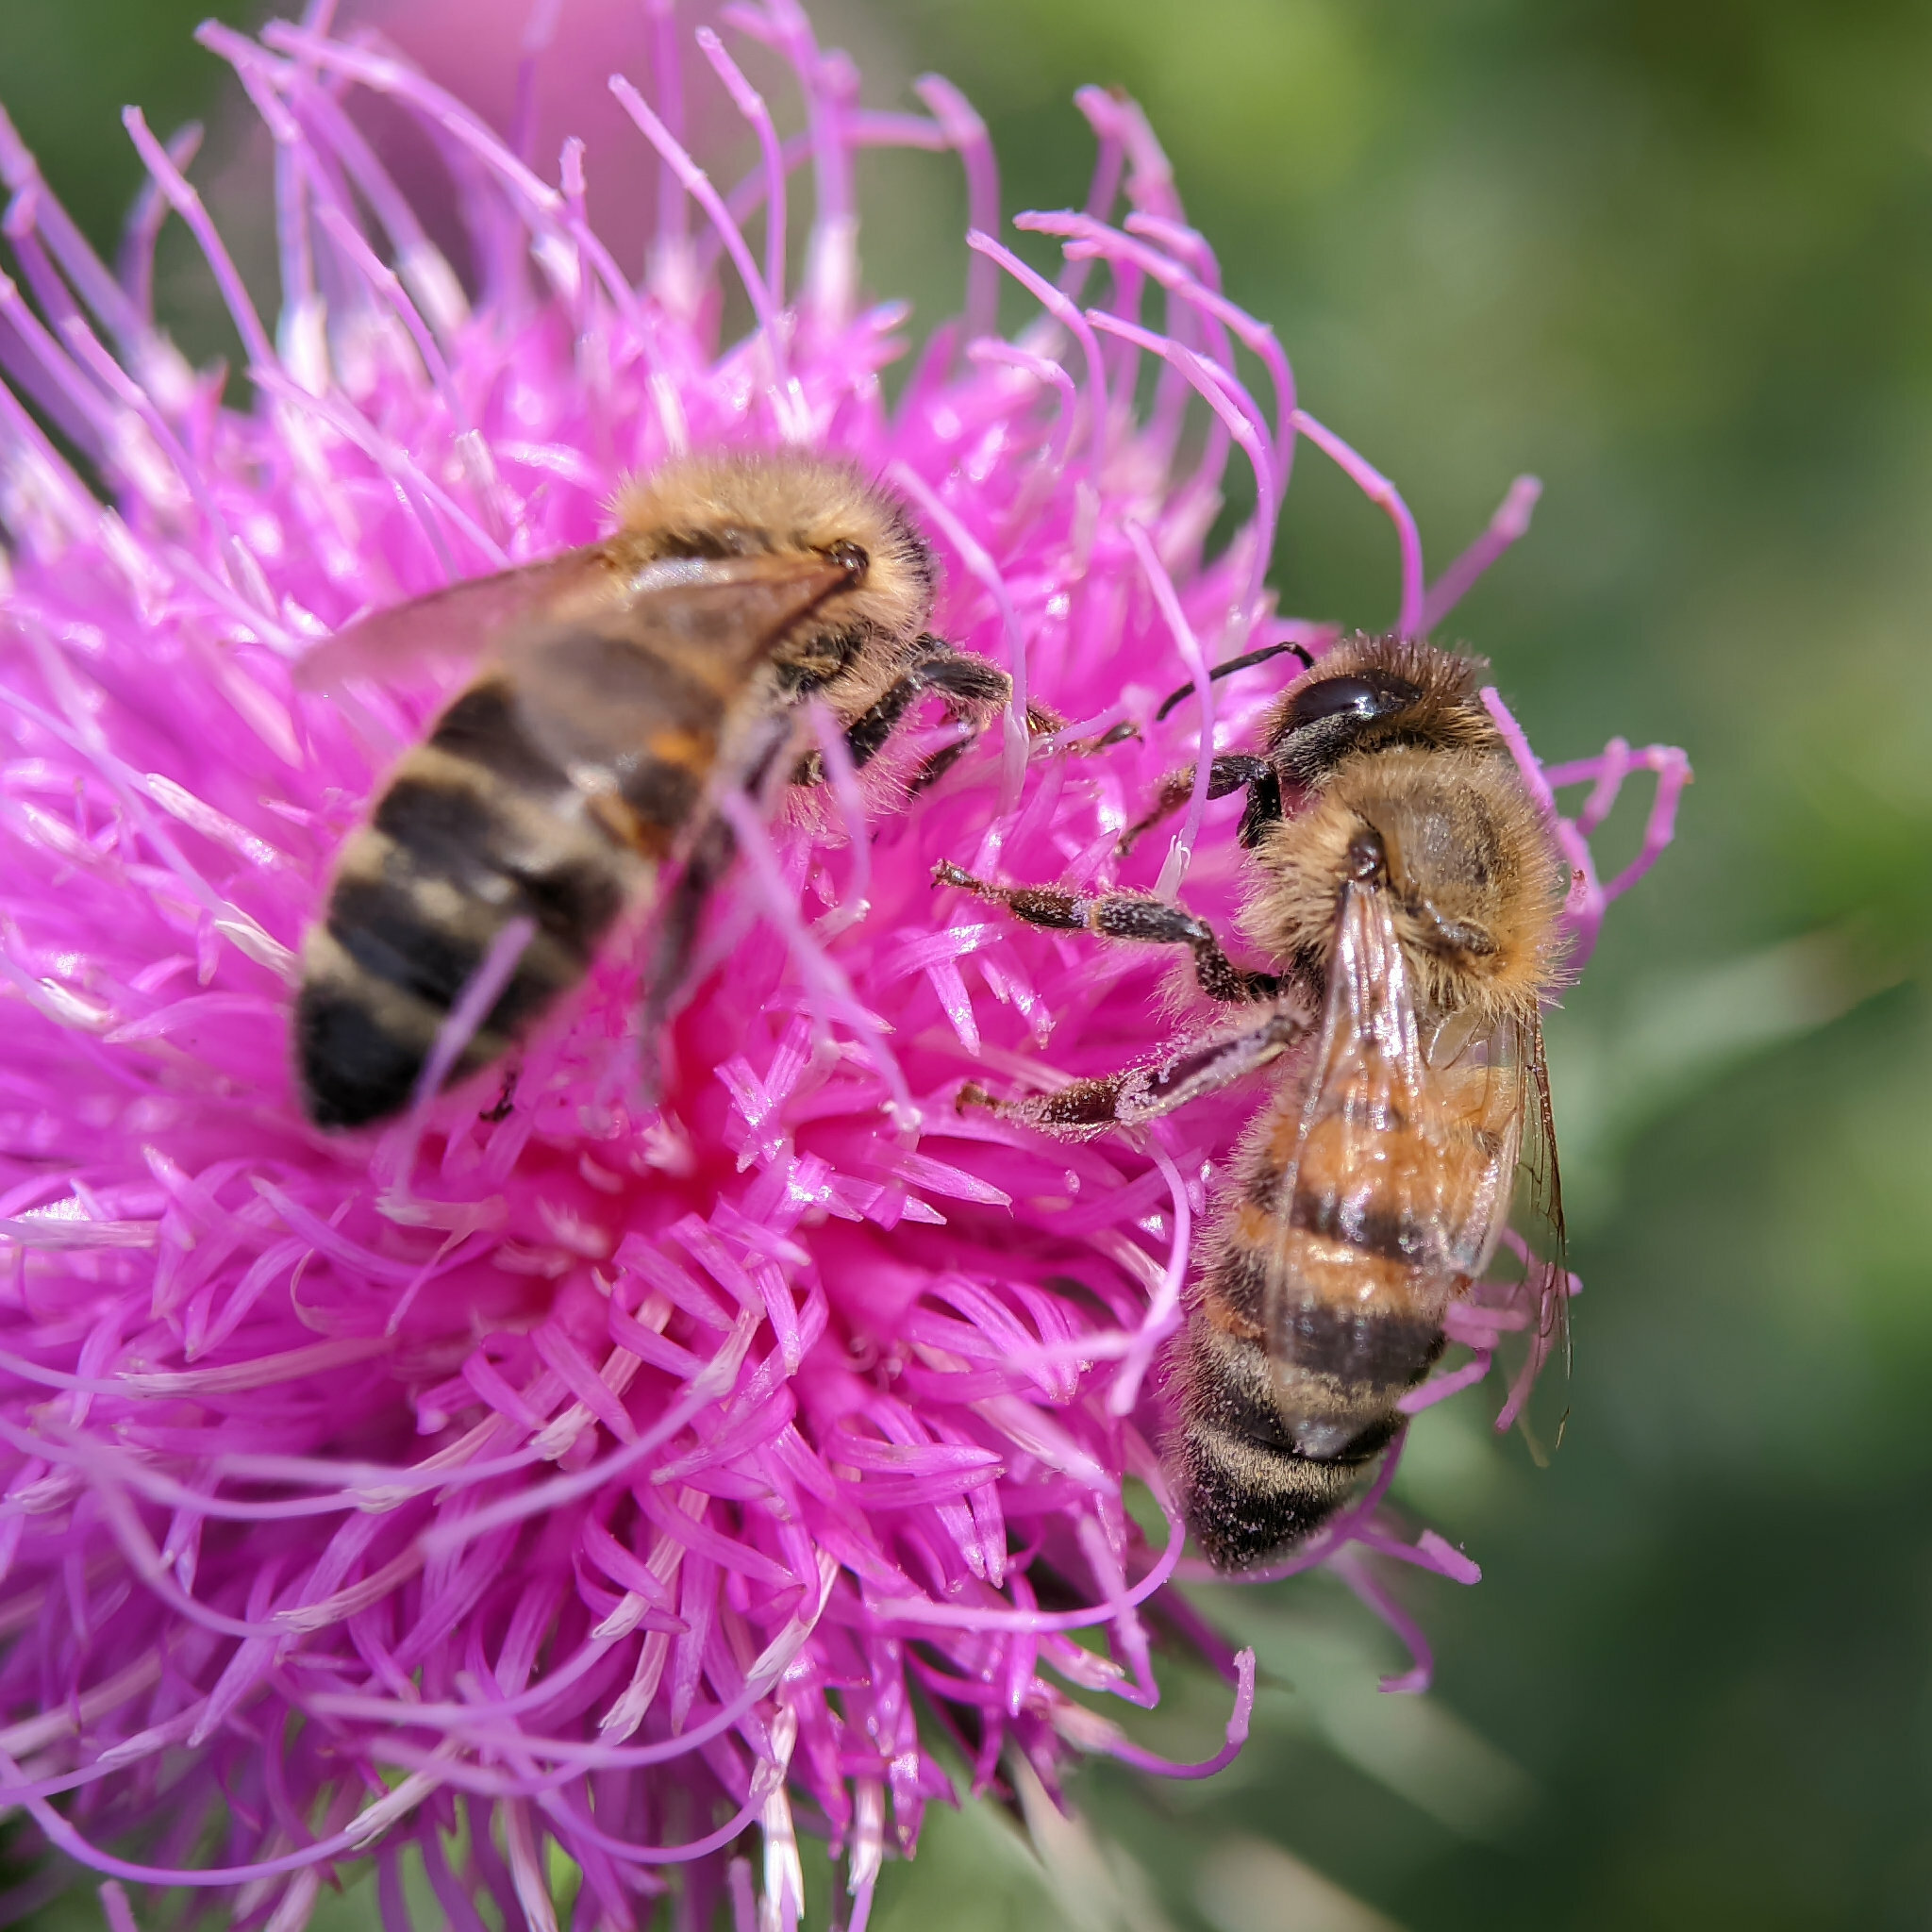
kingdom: Animalia
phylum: Arthropoda
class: Insecta
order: Hymenoptera
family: Apidae
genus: Apis
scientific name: Apis mellifera
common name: Honey bee
